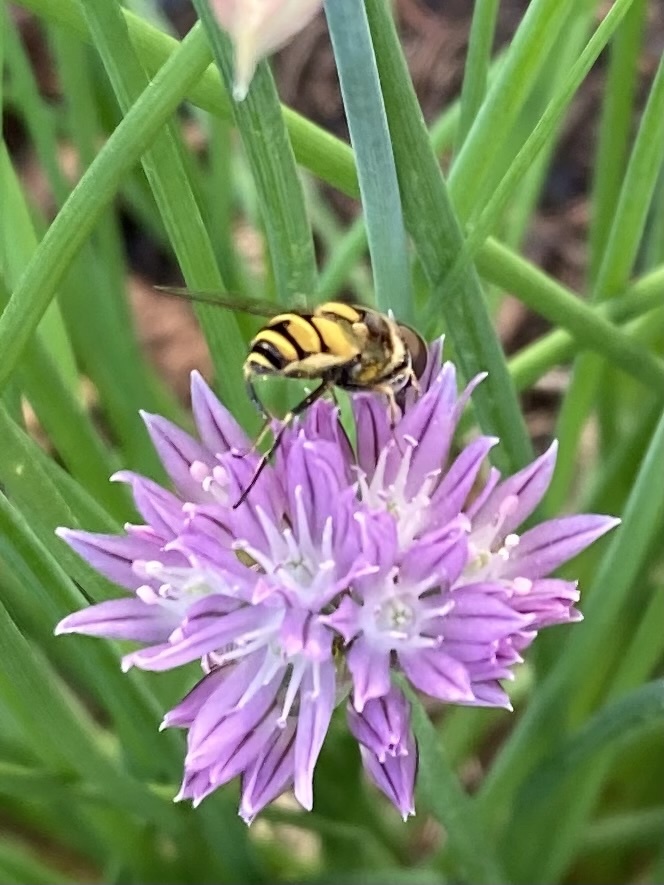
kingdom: Animalia
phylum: Arthropoda
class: Insecta
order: Diptera
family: Syrphidae
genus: Eristalis
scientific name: Eristalis transversa
